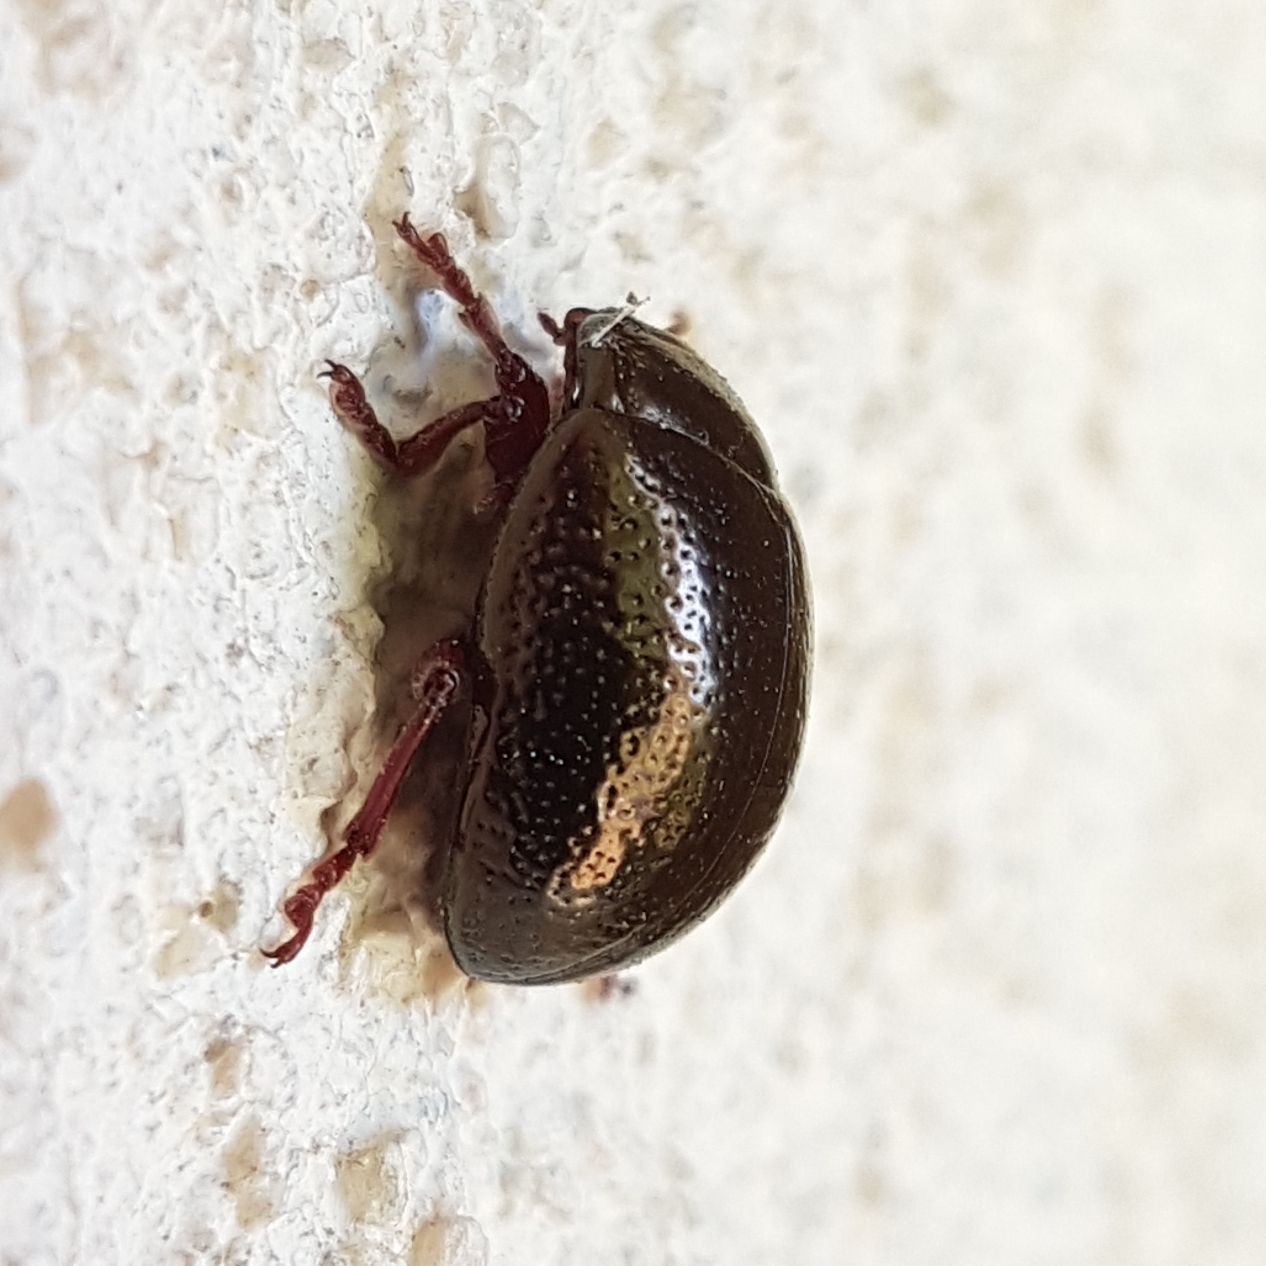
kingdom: Animalia
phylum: Arthropoda
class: Insecta
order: Coleoptera
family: Chrysomelidae
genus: Chrysolina
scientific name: Chrysolina bankii
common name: Leaf beetle
